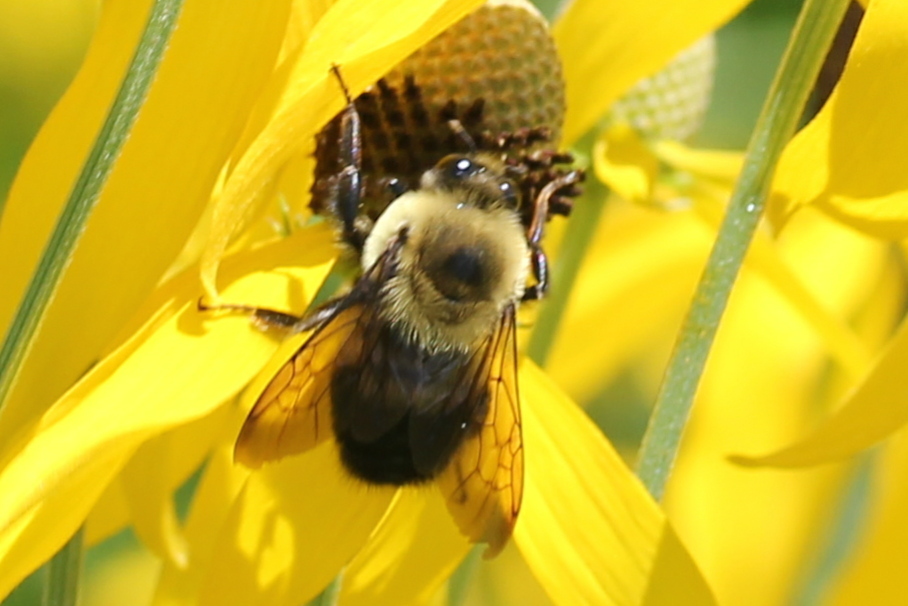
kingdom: Animalia
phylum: Arthropoda
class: Insecta
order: Hymenoptera
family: Apidae
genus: Bombus
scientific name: Bombus griseocollis
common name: Brown-belted bumble bee
